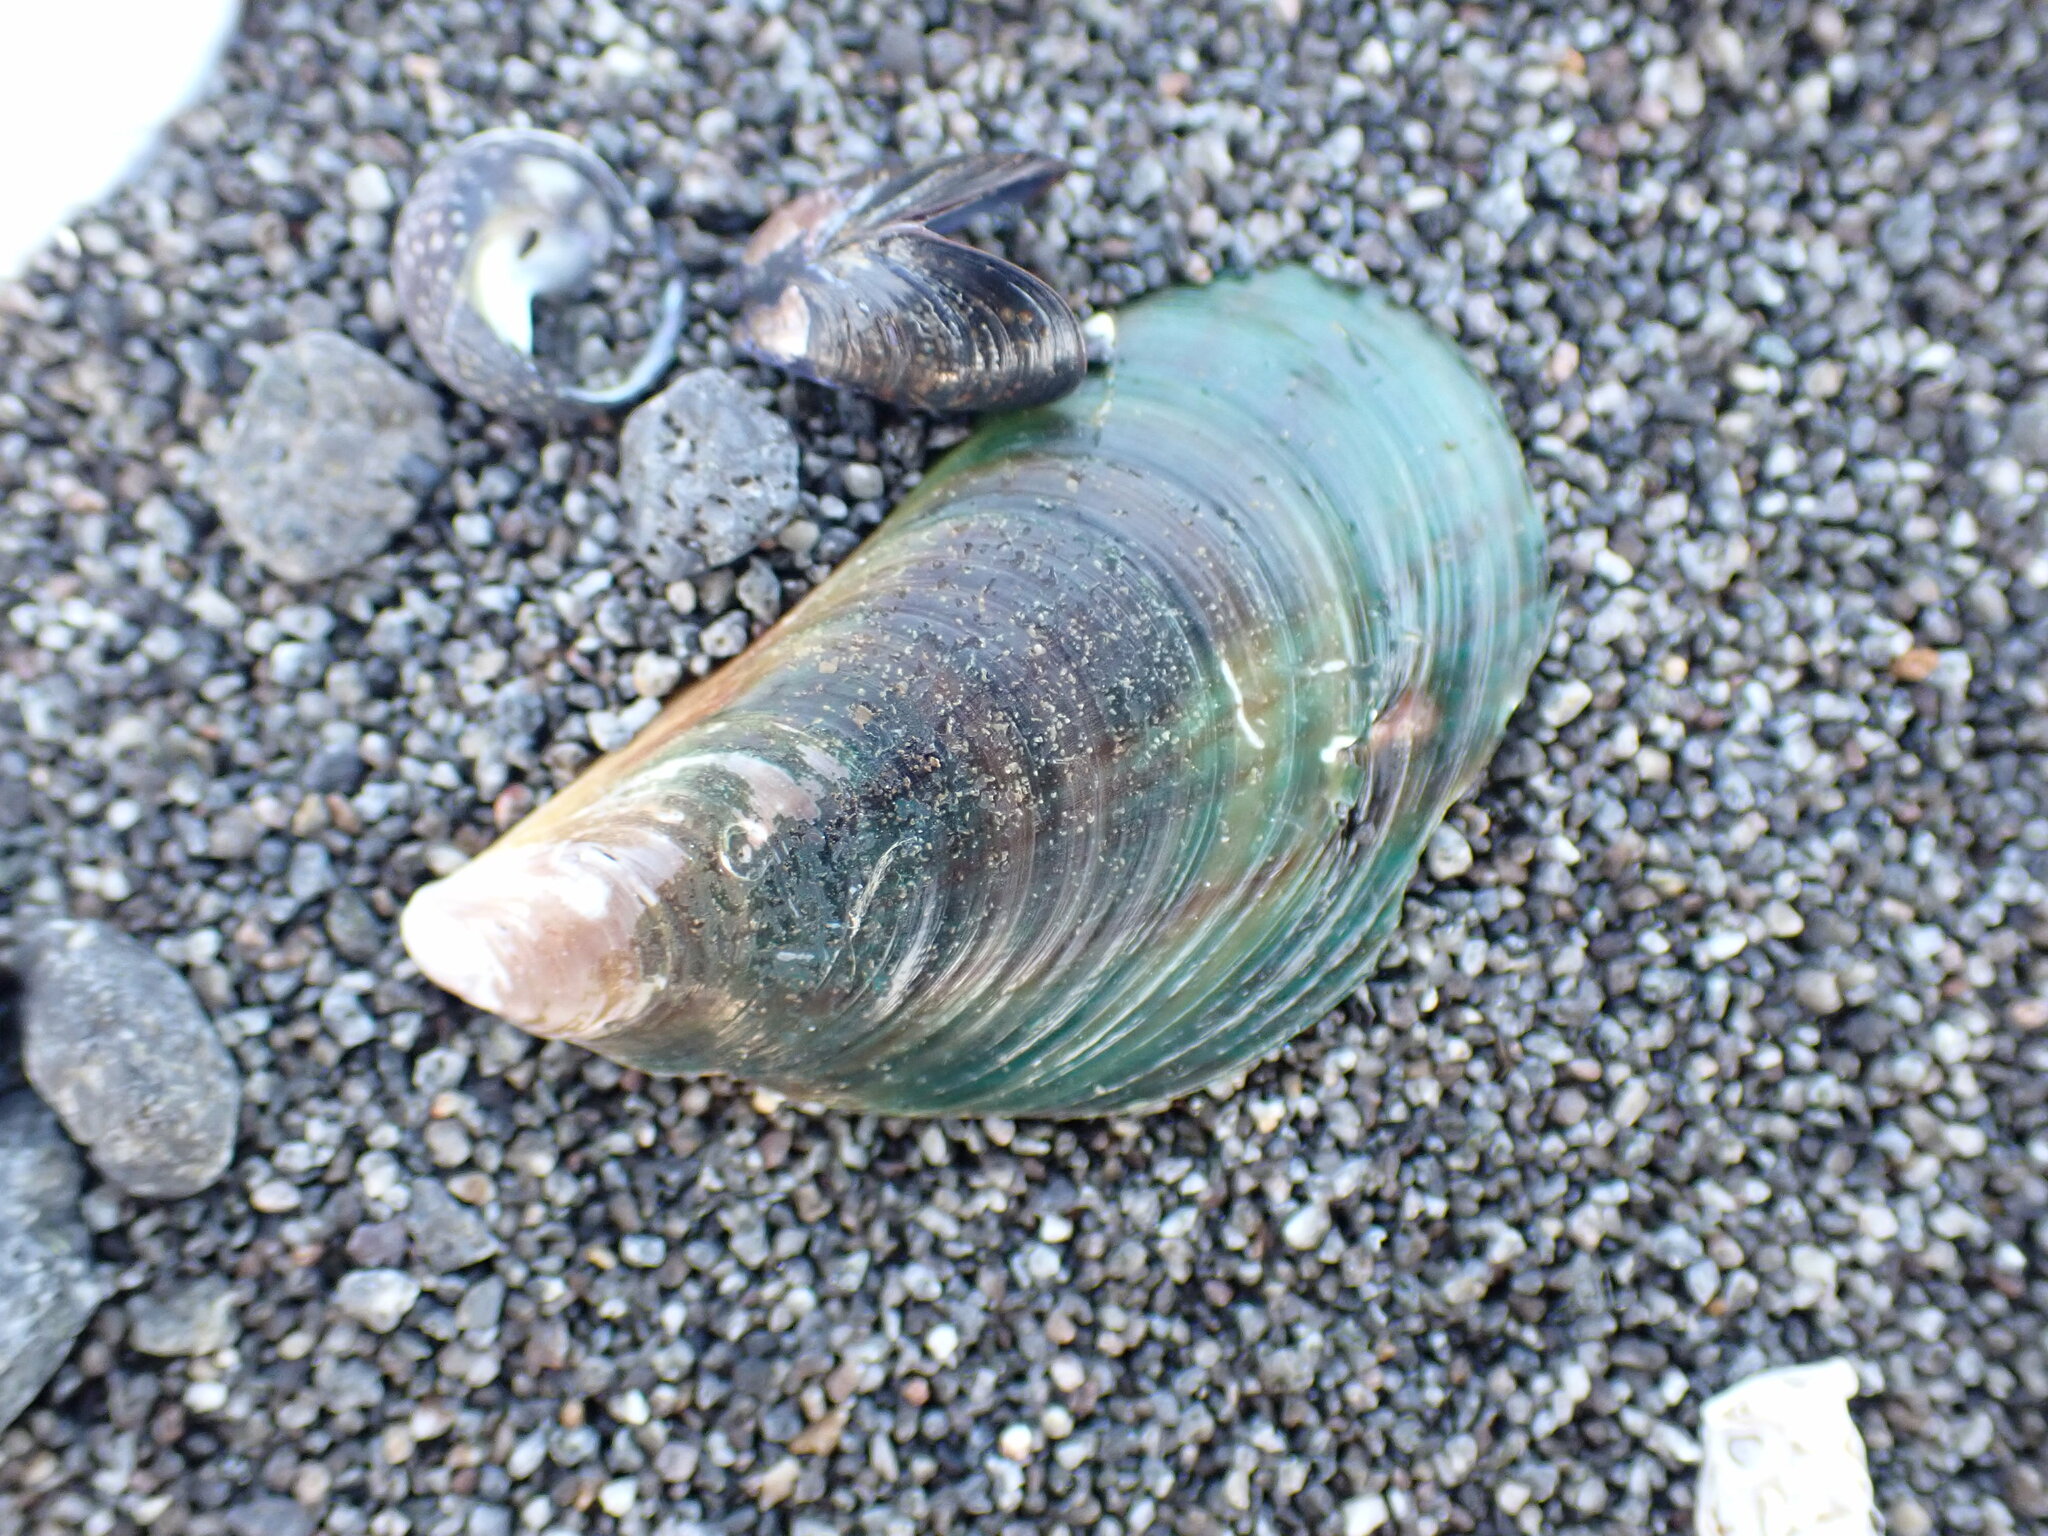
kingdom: Animalia
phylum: Mollusca
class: Bivalvia
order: Mytilida
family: Mytilidae
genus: Perna
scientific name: Perna canaliculus
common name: New zealand greenshelltm
